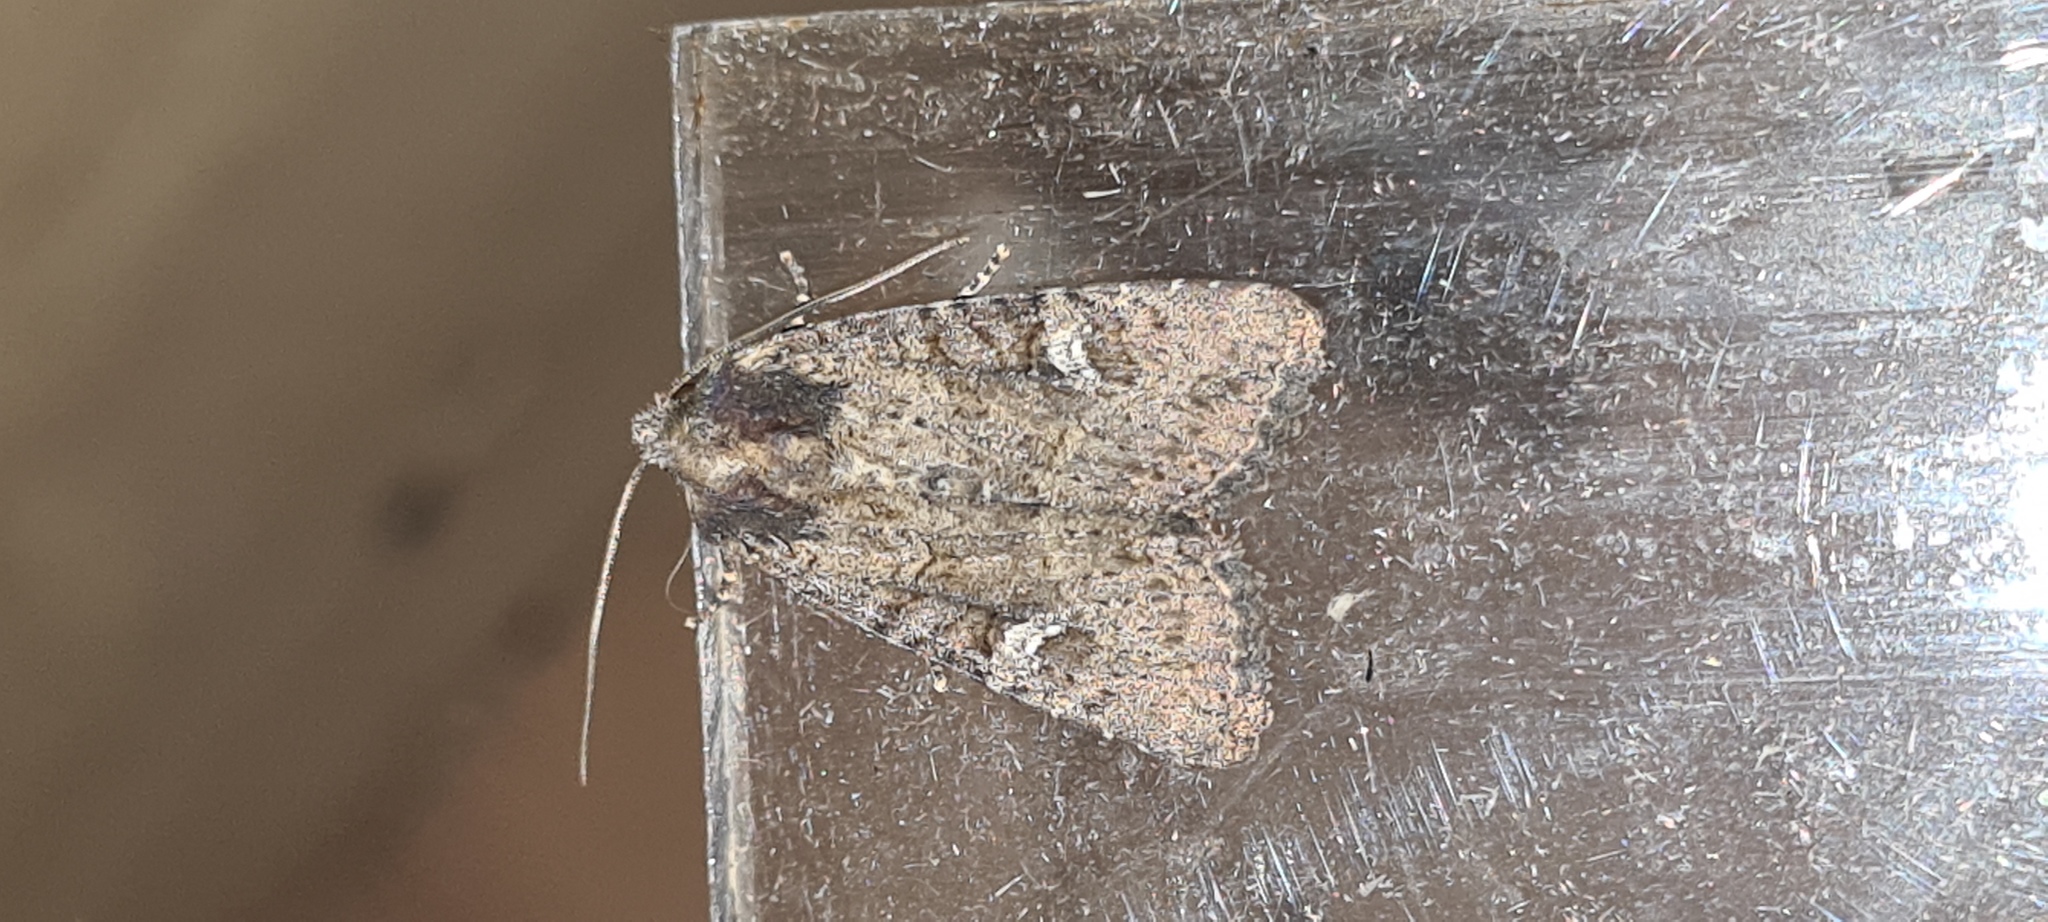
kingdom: Animalia
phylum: Arthropoda
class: Insecta
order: Lepidoptera
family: Noctuidae
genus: Mesapamea
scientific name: Mesapamea
